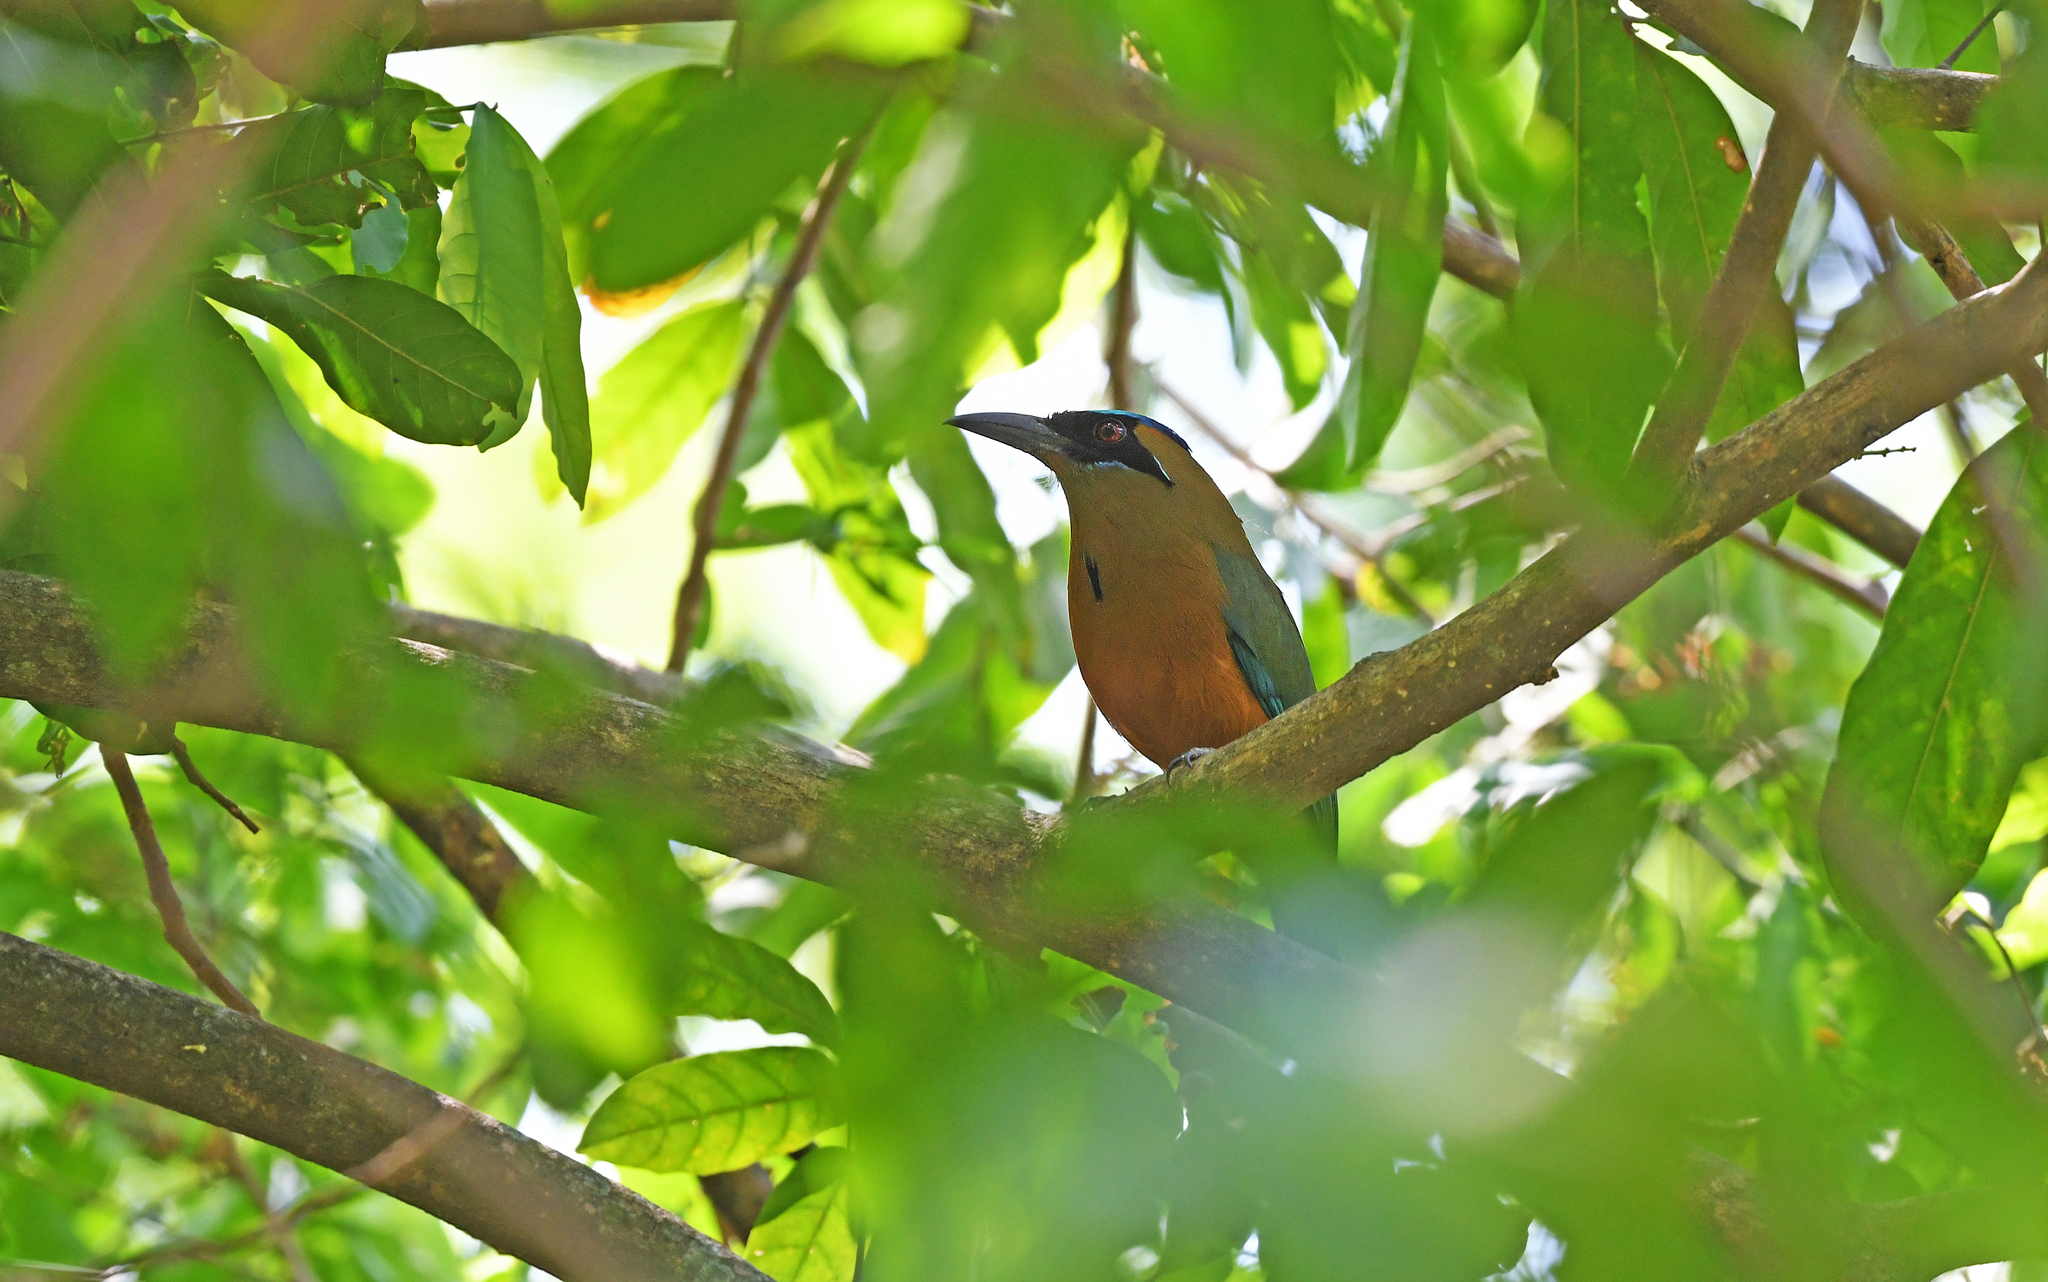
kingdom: Animalia
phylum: Chordata
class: Aves
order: Coraciiformes
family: Momotidae
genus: Momotus
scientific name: Momotus subrufescens
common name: Whooping motmot
